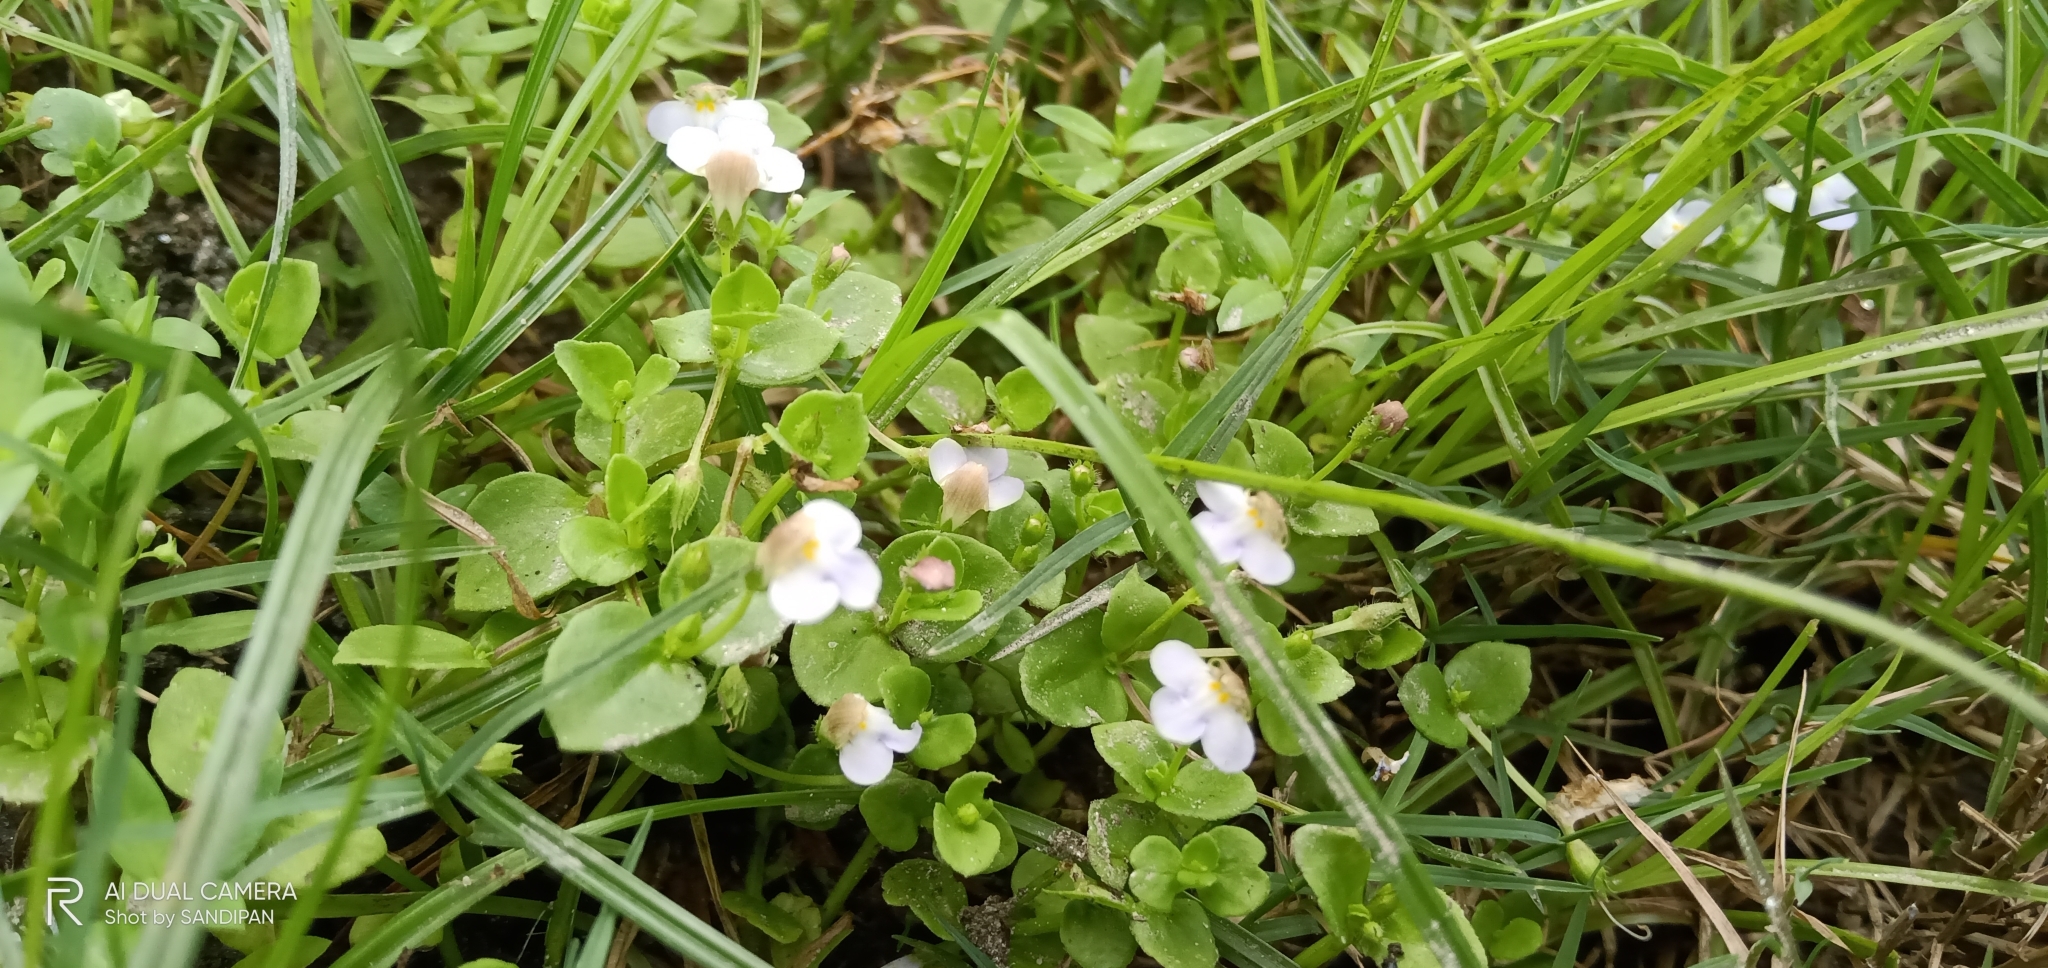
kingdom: Plantae
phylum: Tracheophyta
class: Magnoliopsida
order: Lamiales
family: Linderniaceae
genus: Yamazakia
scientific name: Yamazakia pusilla
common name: Tiny slitwort
